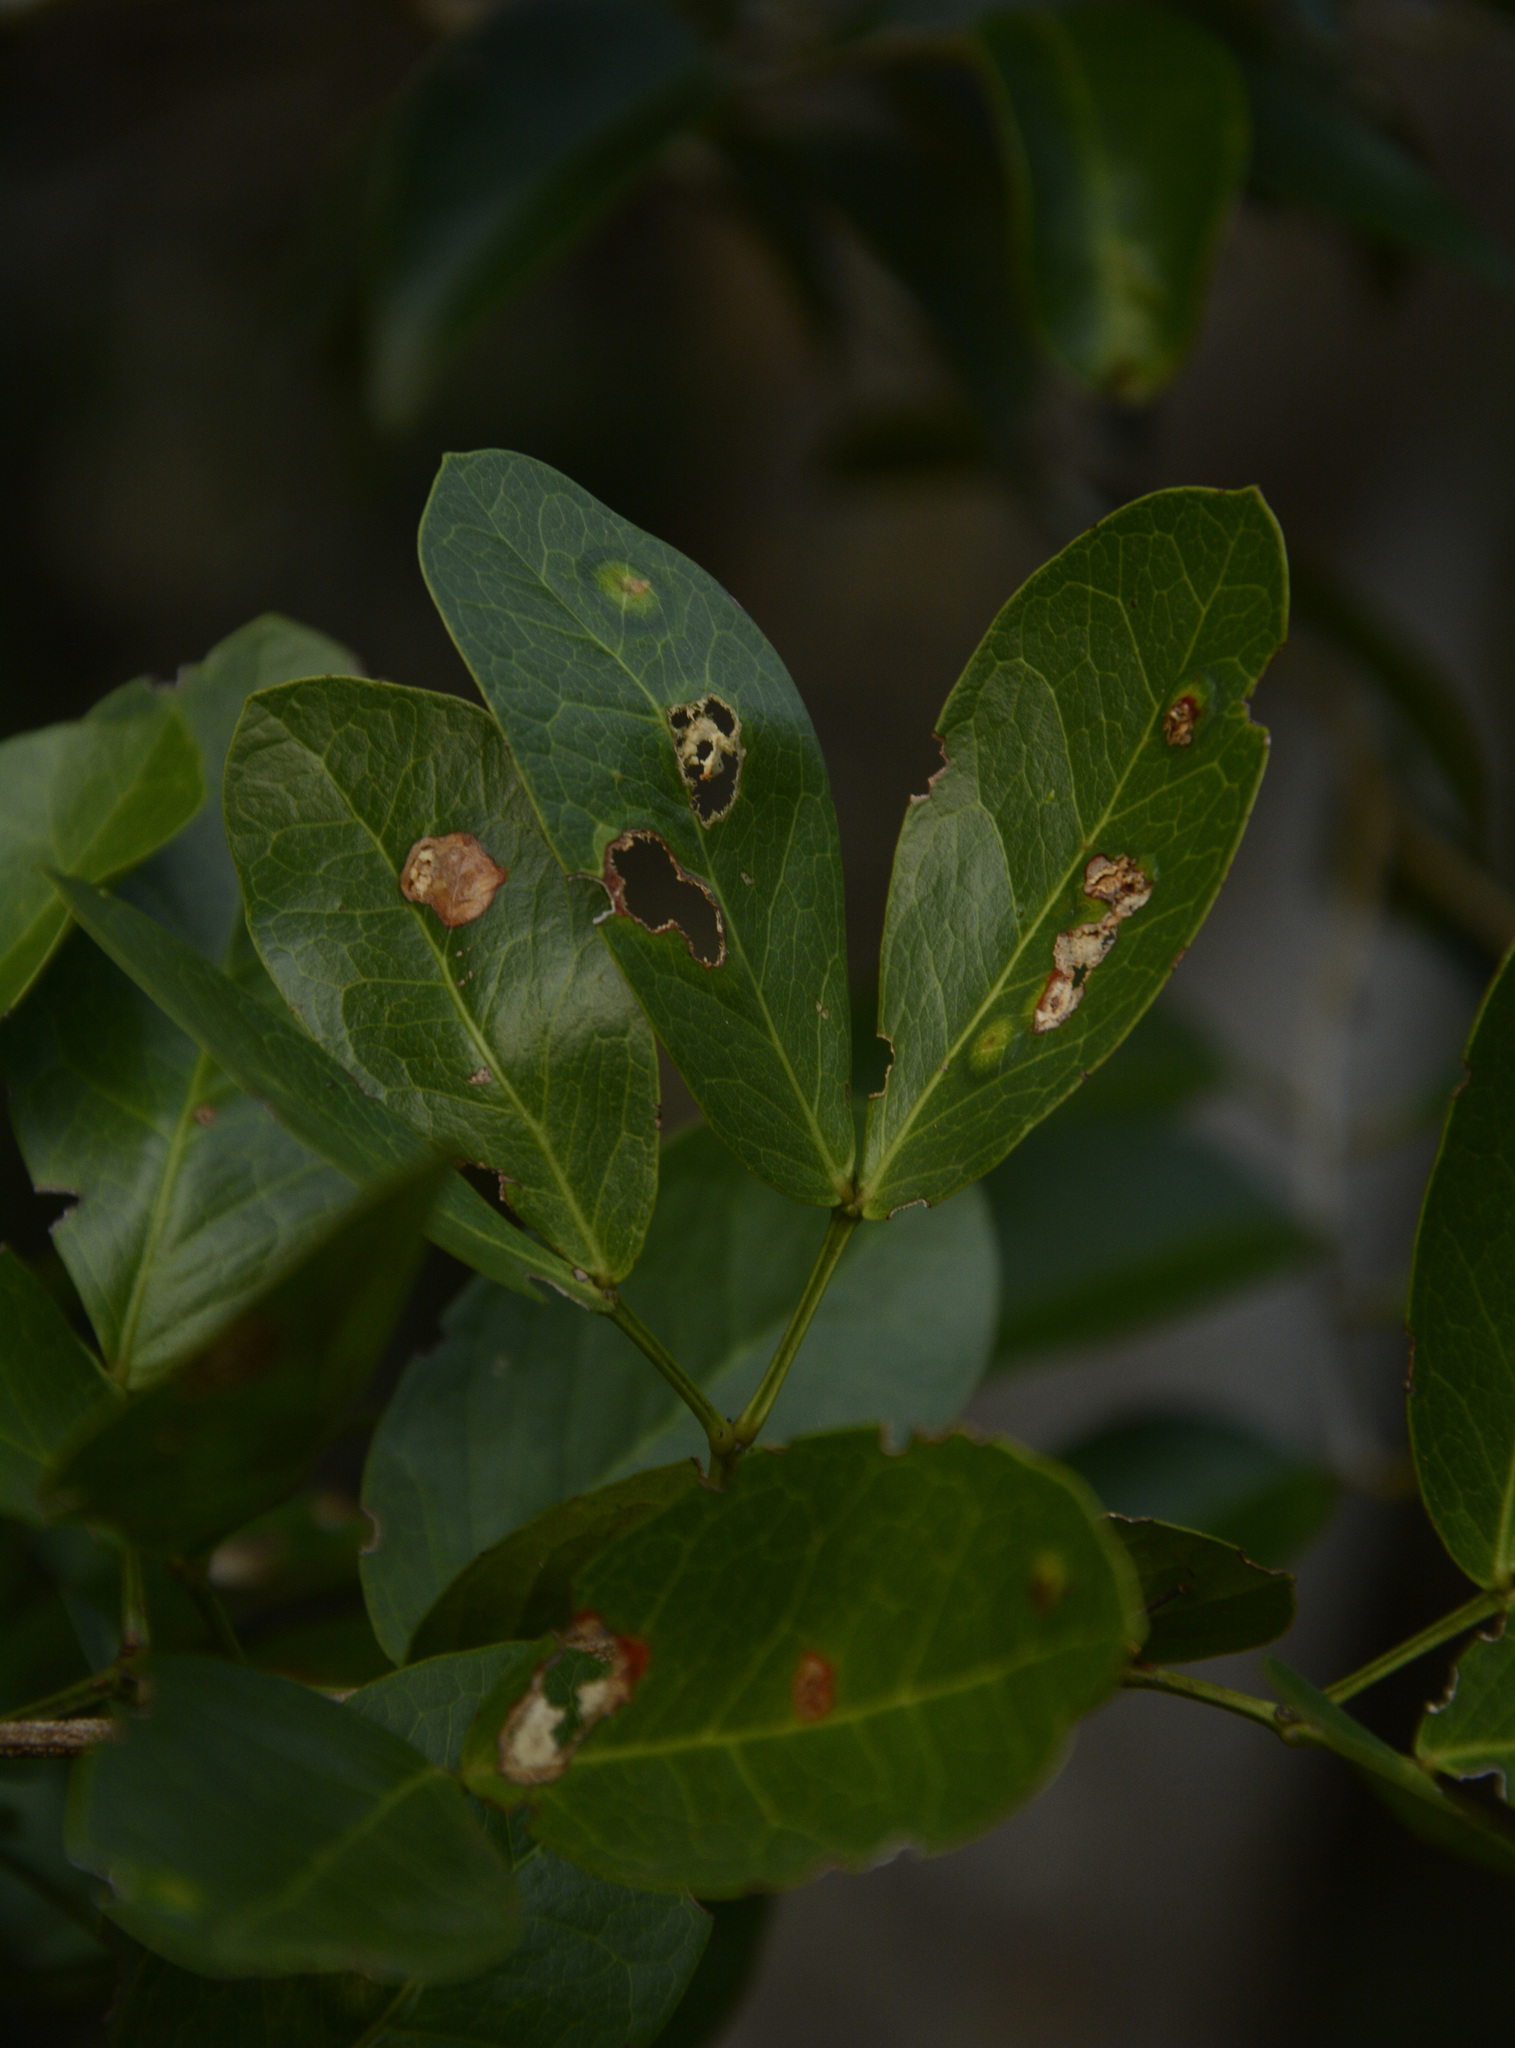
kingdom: Plantae
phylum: Tracheophyta
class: Magnoliopsida
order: Fabales
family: Fabaceae
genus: Pithecellobium
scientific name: Pithecellobium keyense
